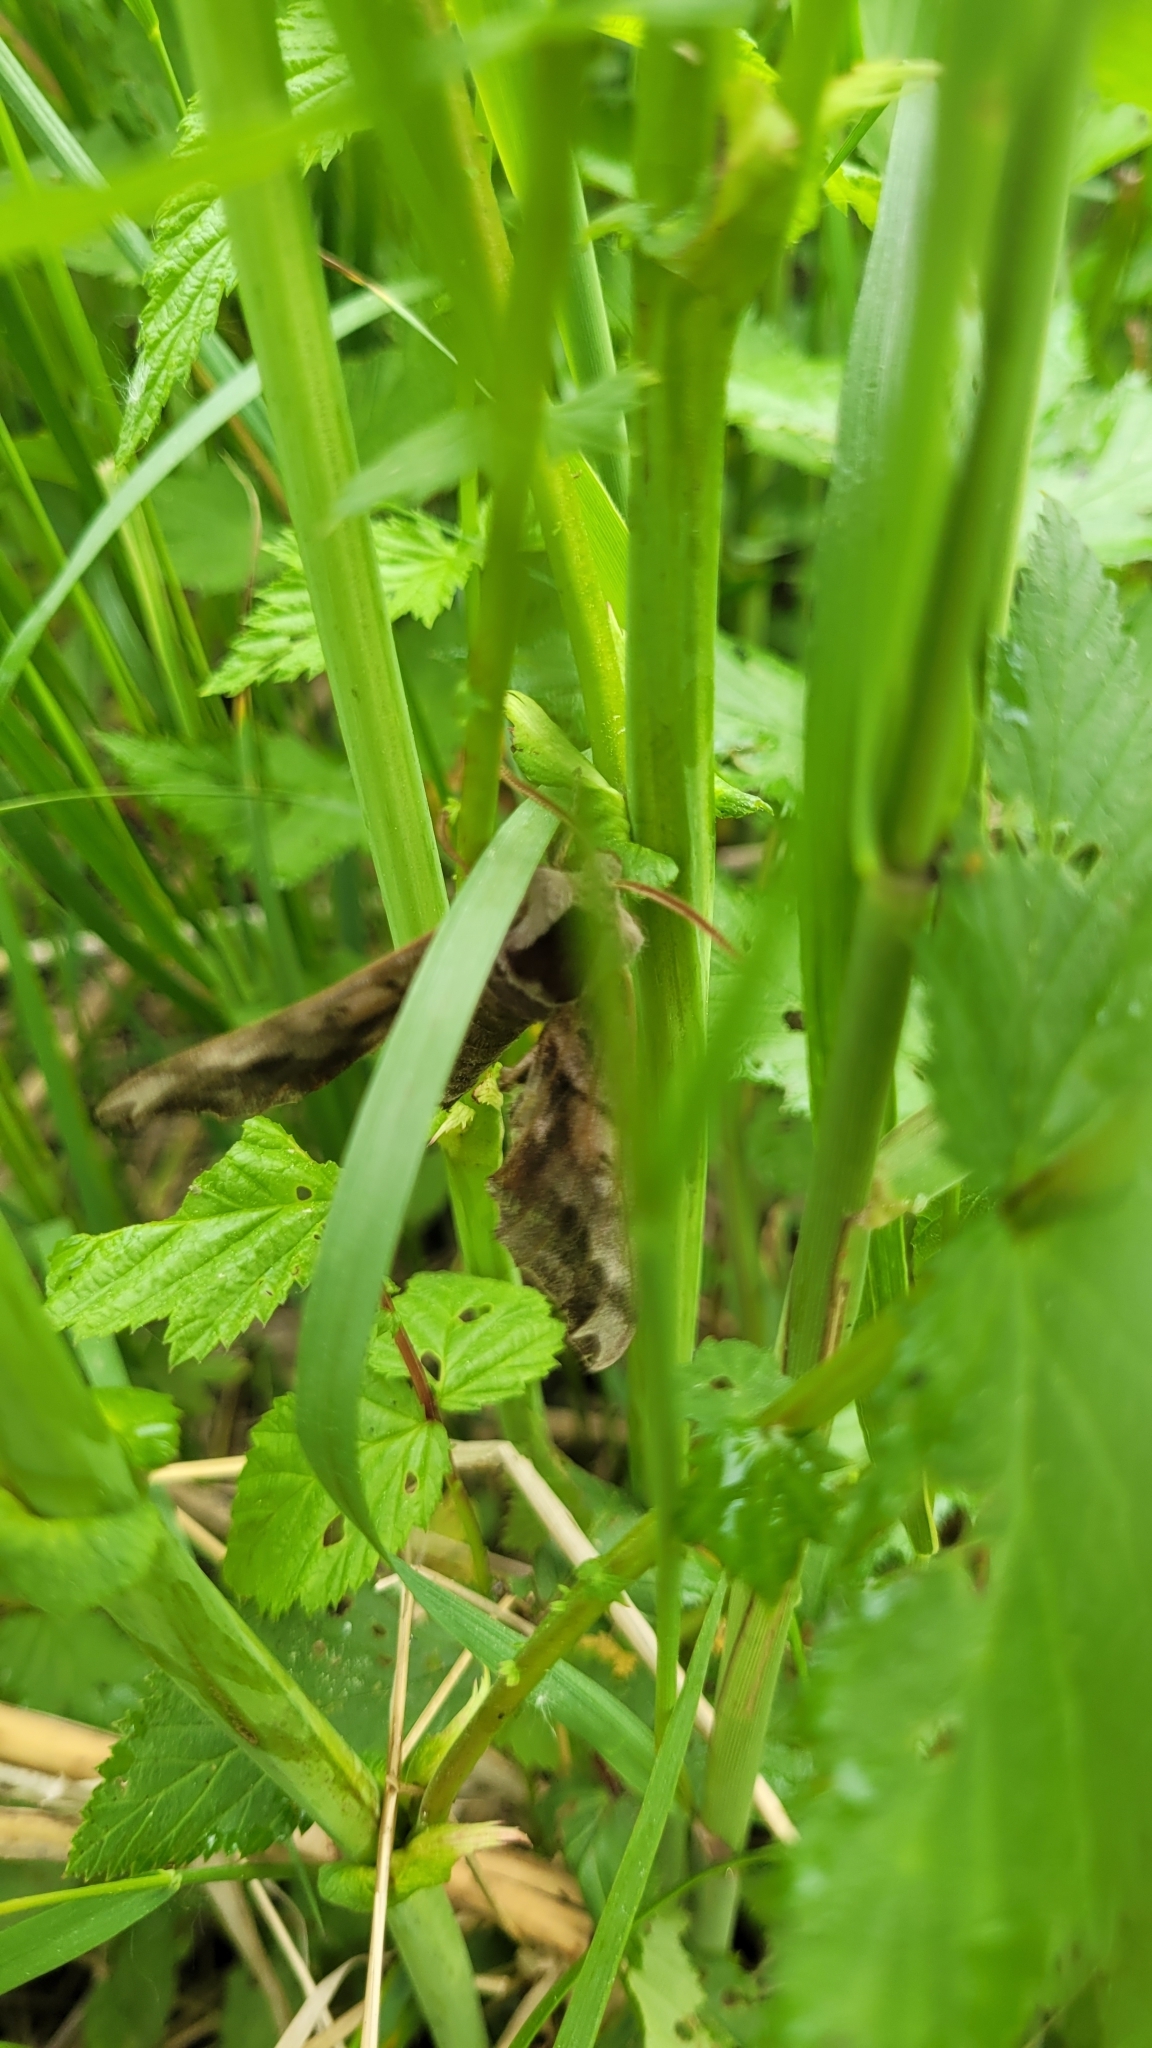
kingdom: Animalia
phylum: Arthropoda
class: Insecta
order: Lepidoptera
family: Sphingidae
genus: Smerinthus
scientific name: Smerinthus caecus
